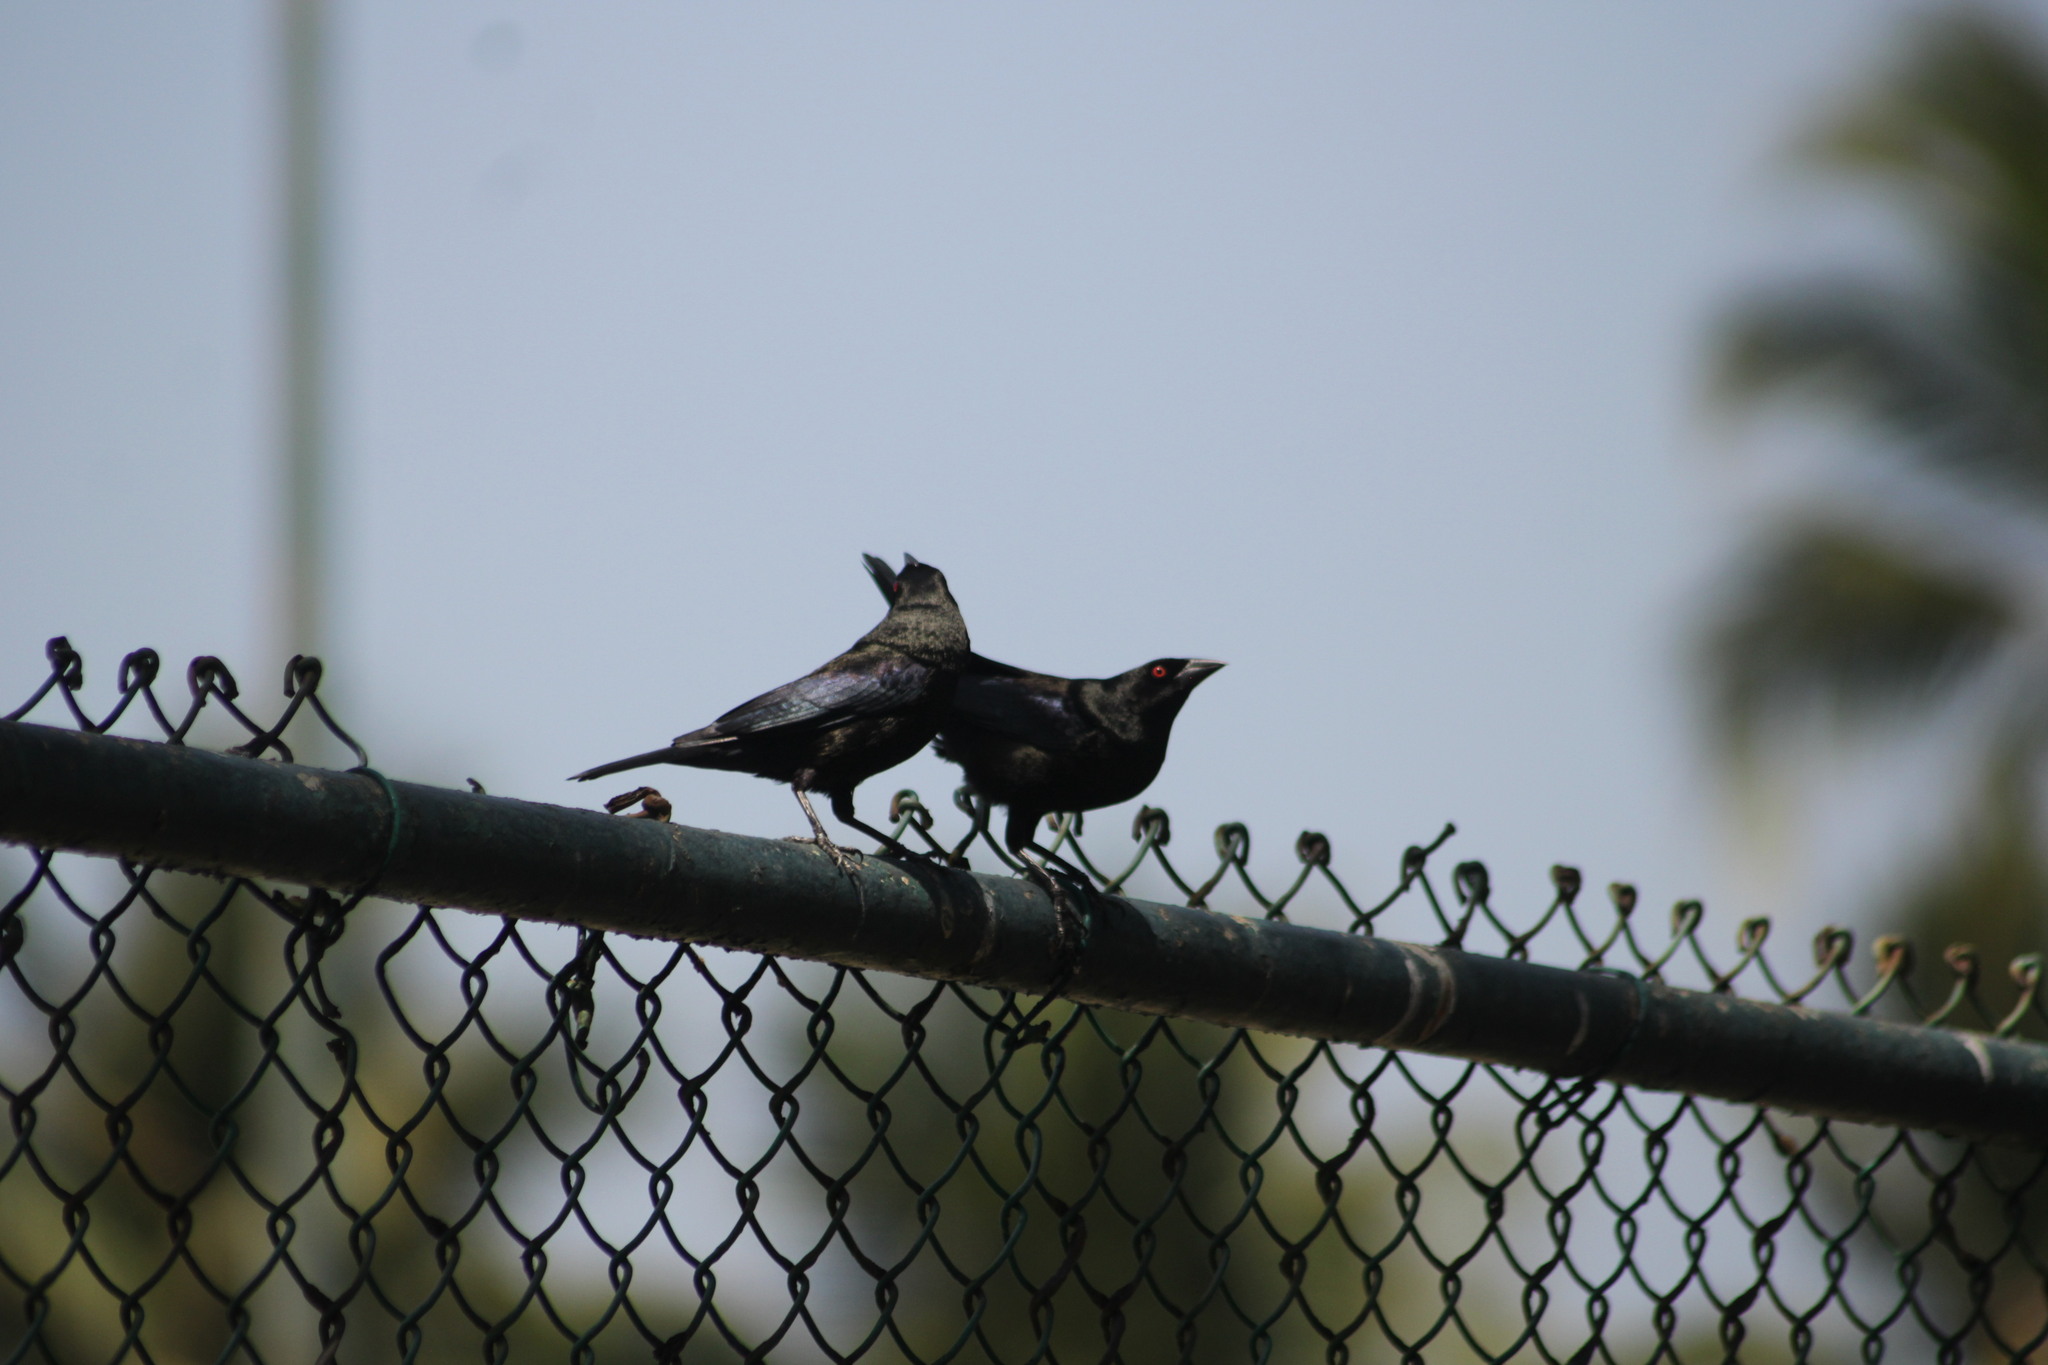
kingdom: Animalia
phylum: Chordata
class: Aves
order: Passeriformes
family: Icteridae
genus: Molothrus
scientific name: Molothrus aeneus
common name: Bronzed cowbird
